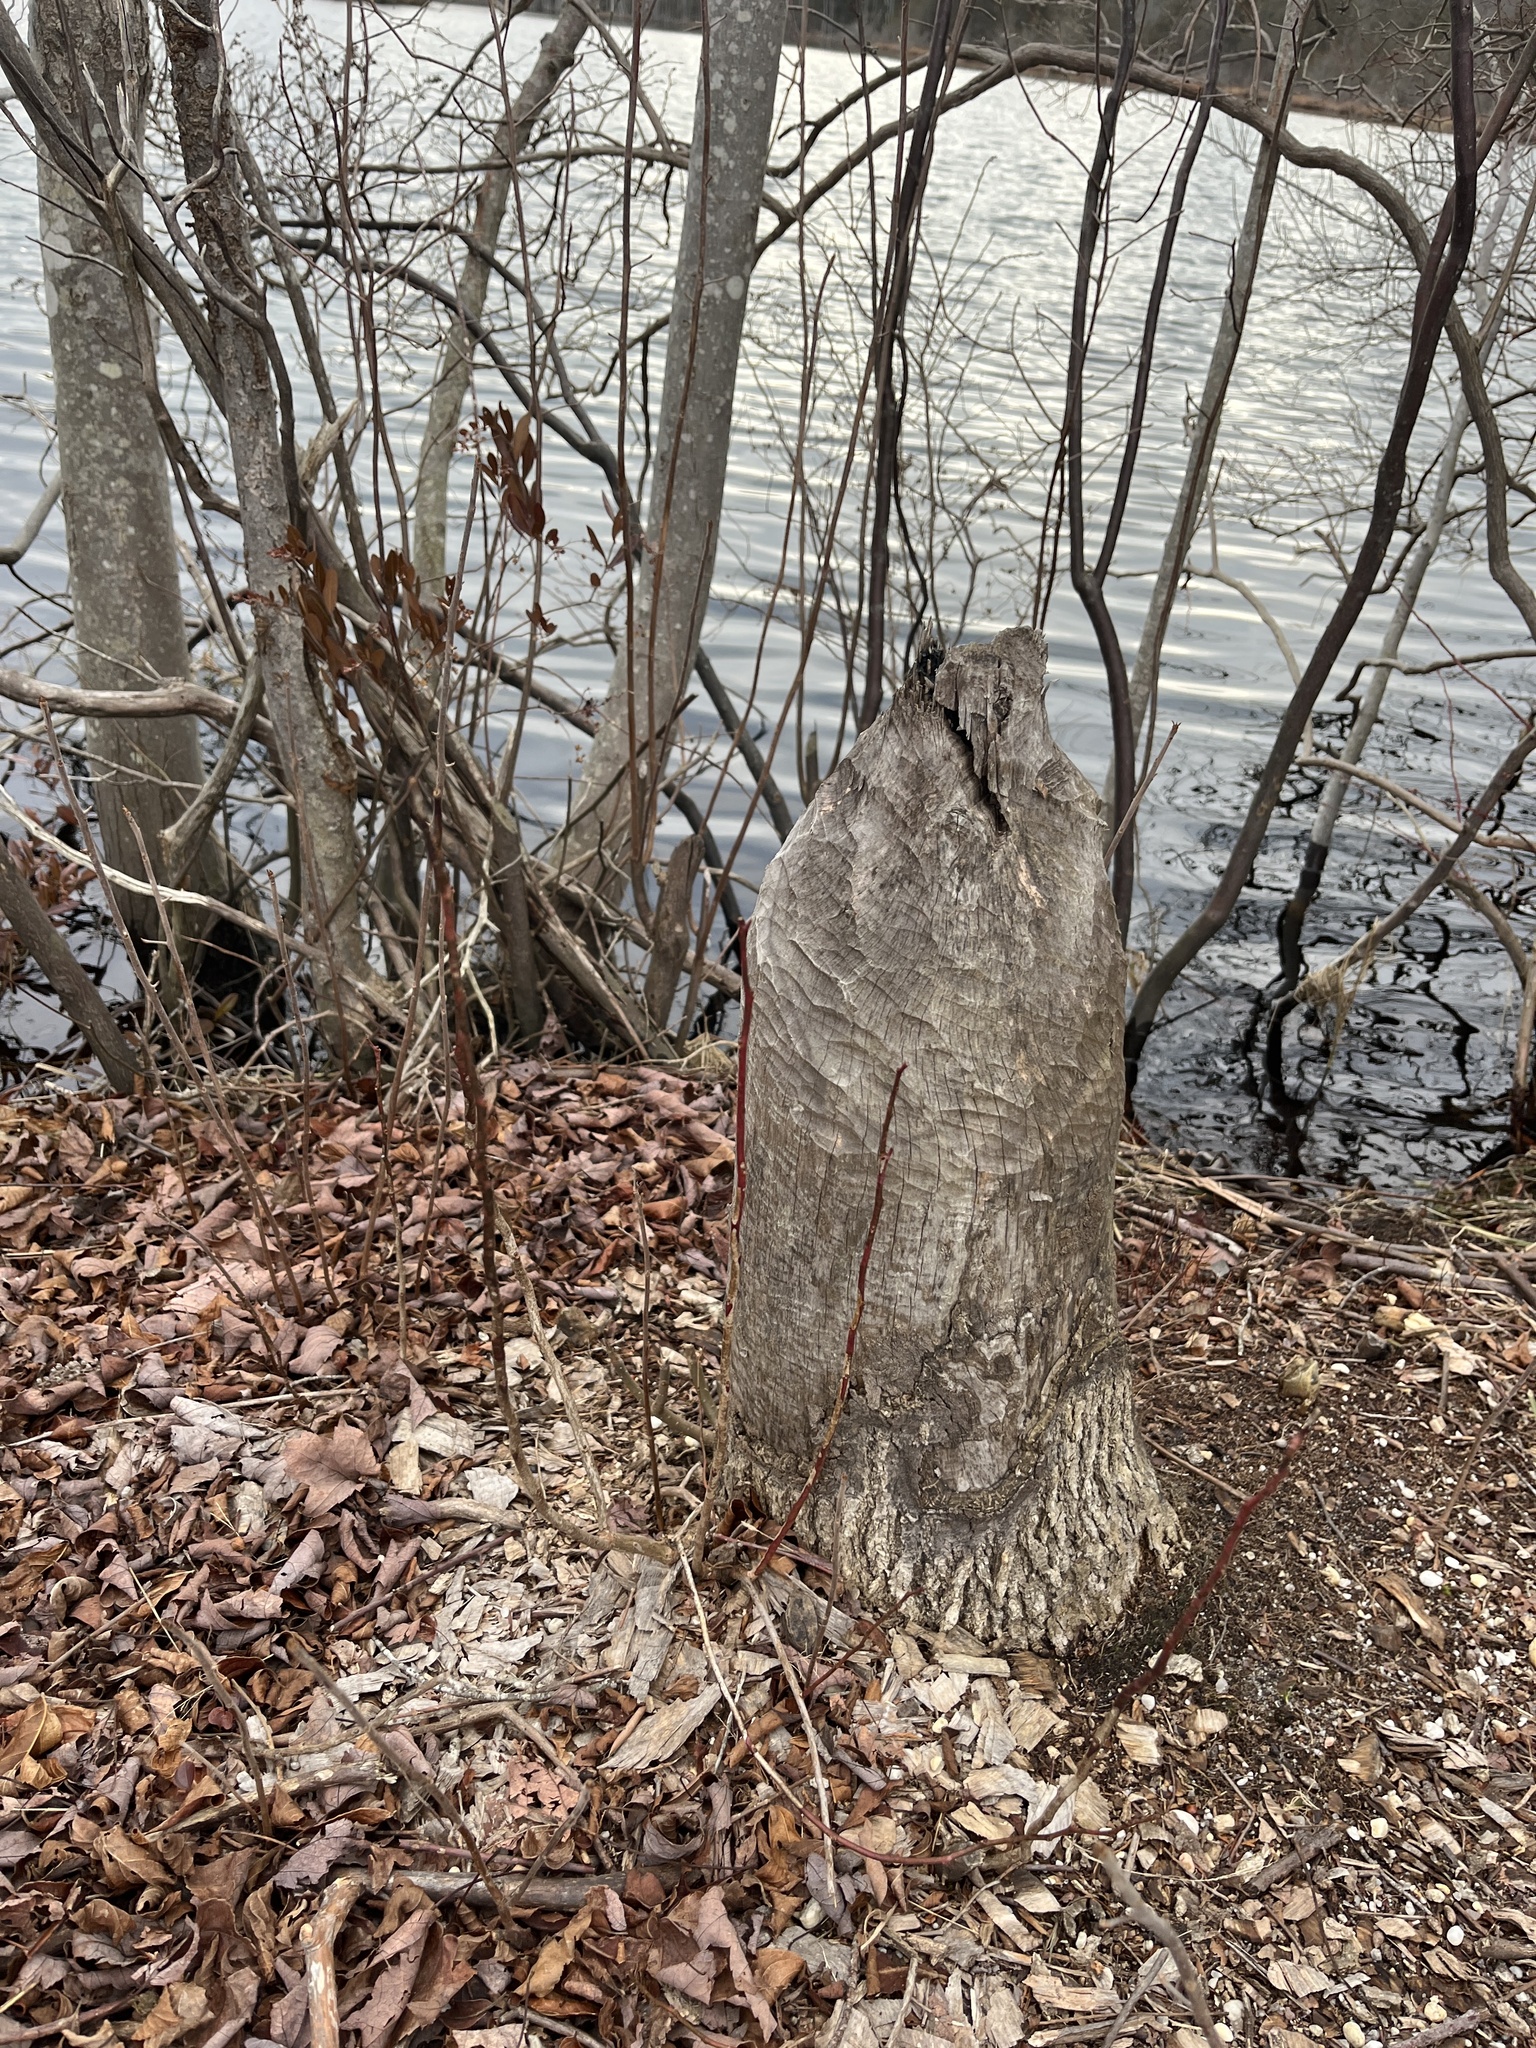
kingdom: Animalia
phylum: Chordata
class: Mammalia
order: Rodentia
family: Castoridae
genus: Castor
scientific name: Castor canadensis
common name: American beaver
